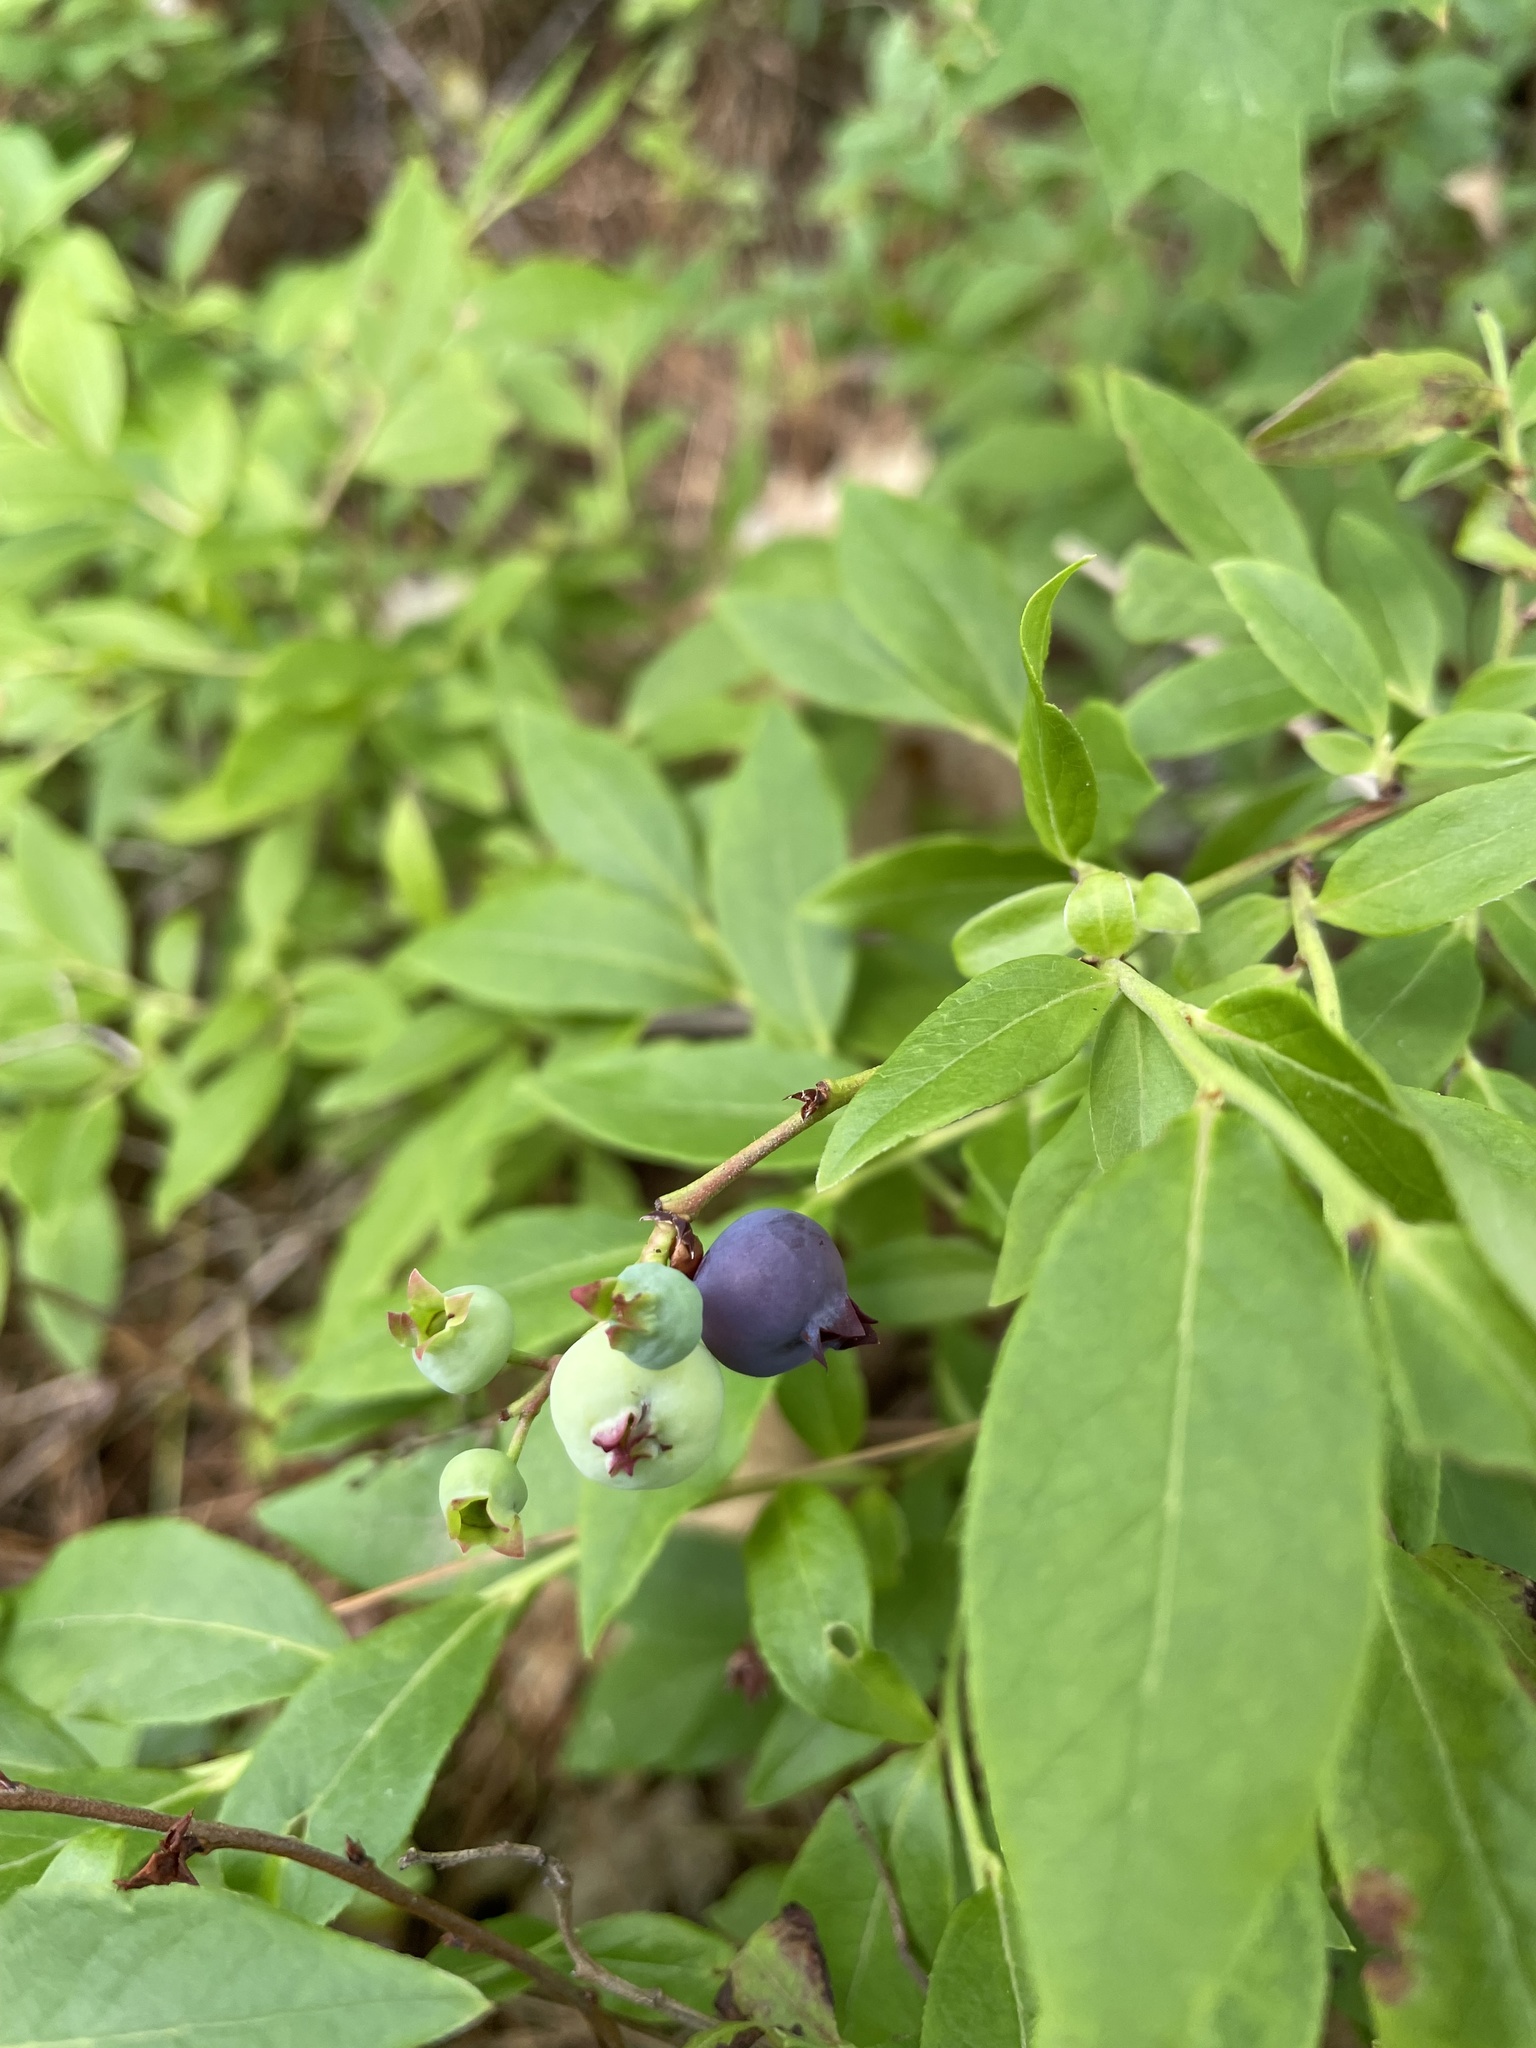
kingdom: Plantae
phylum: Tracheophyta
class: Magnoliopsida
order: Ericales
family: Ericaceae
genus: Vaccinium
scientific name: Vaccinium angustifolium
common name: Early lowbush blueberry
